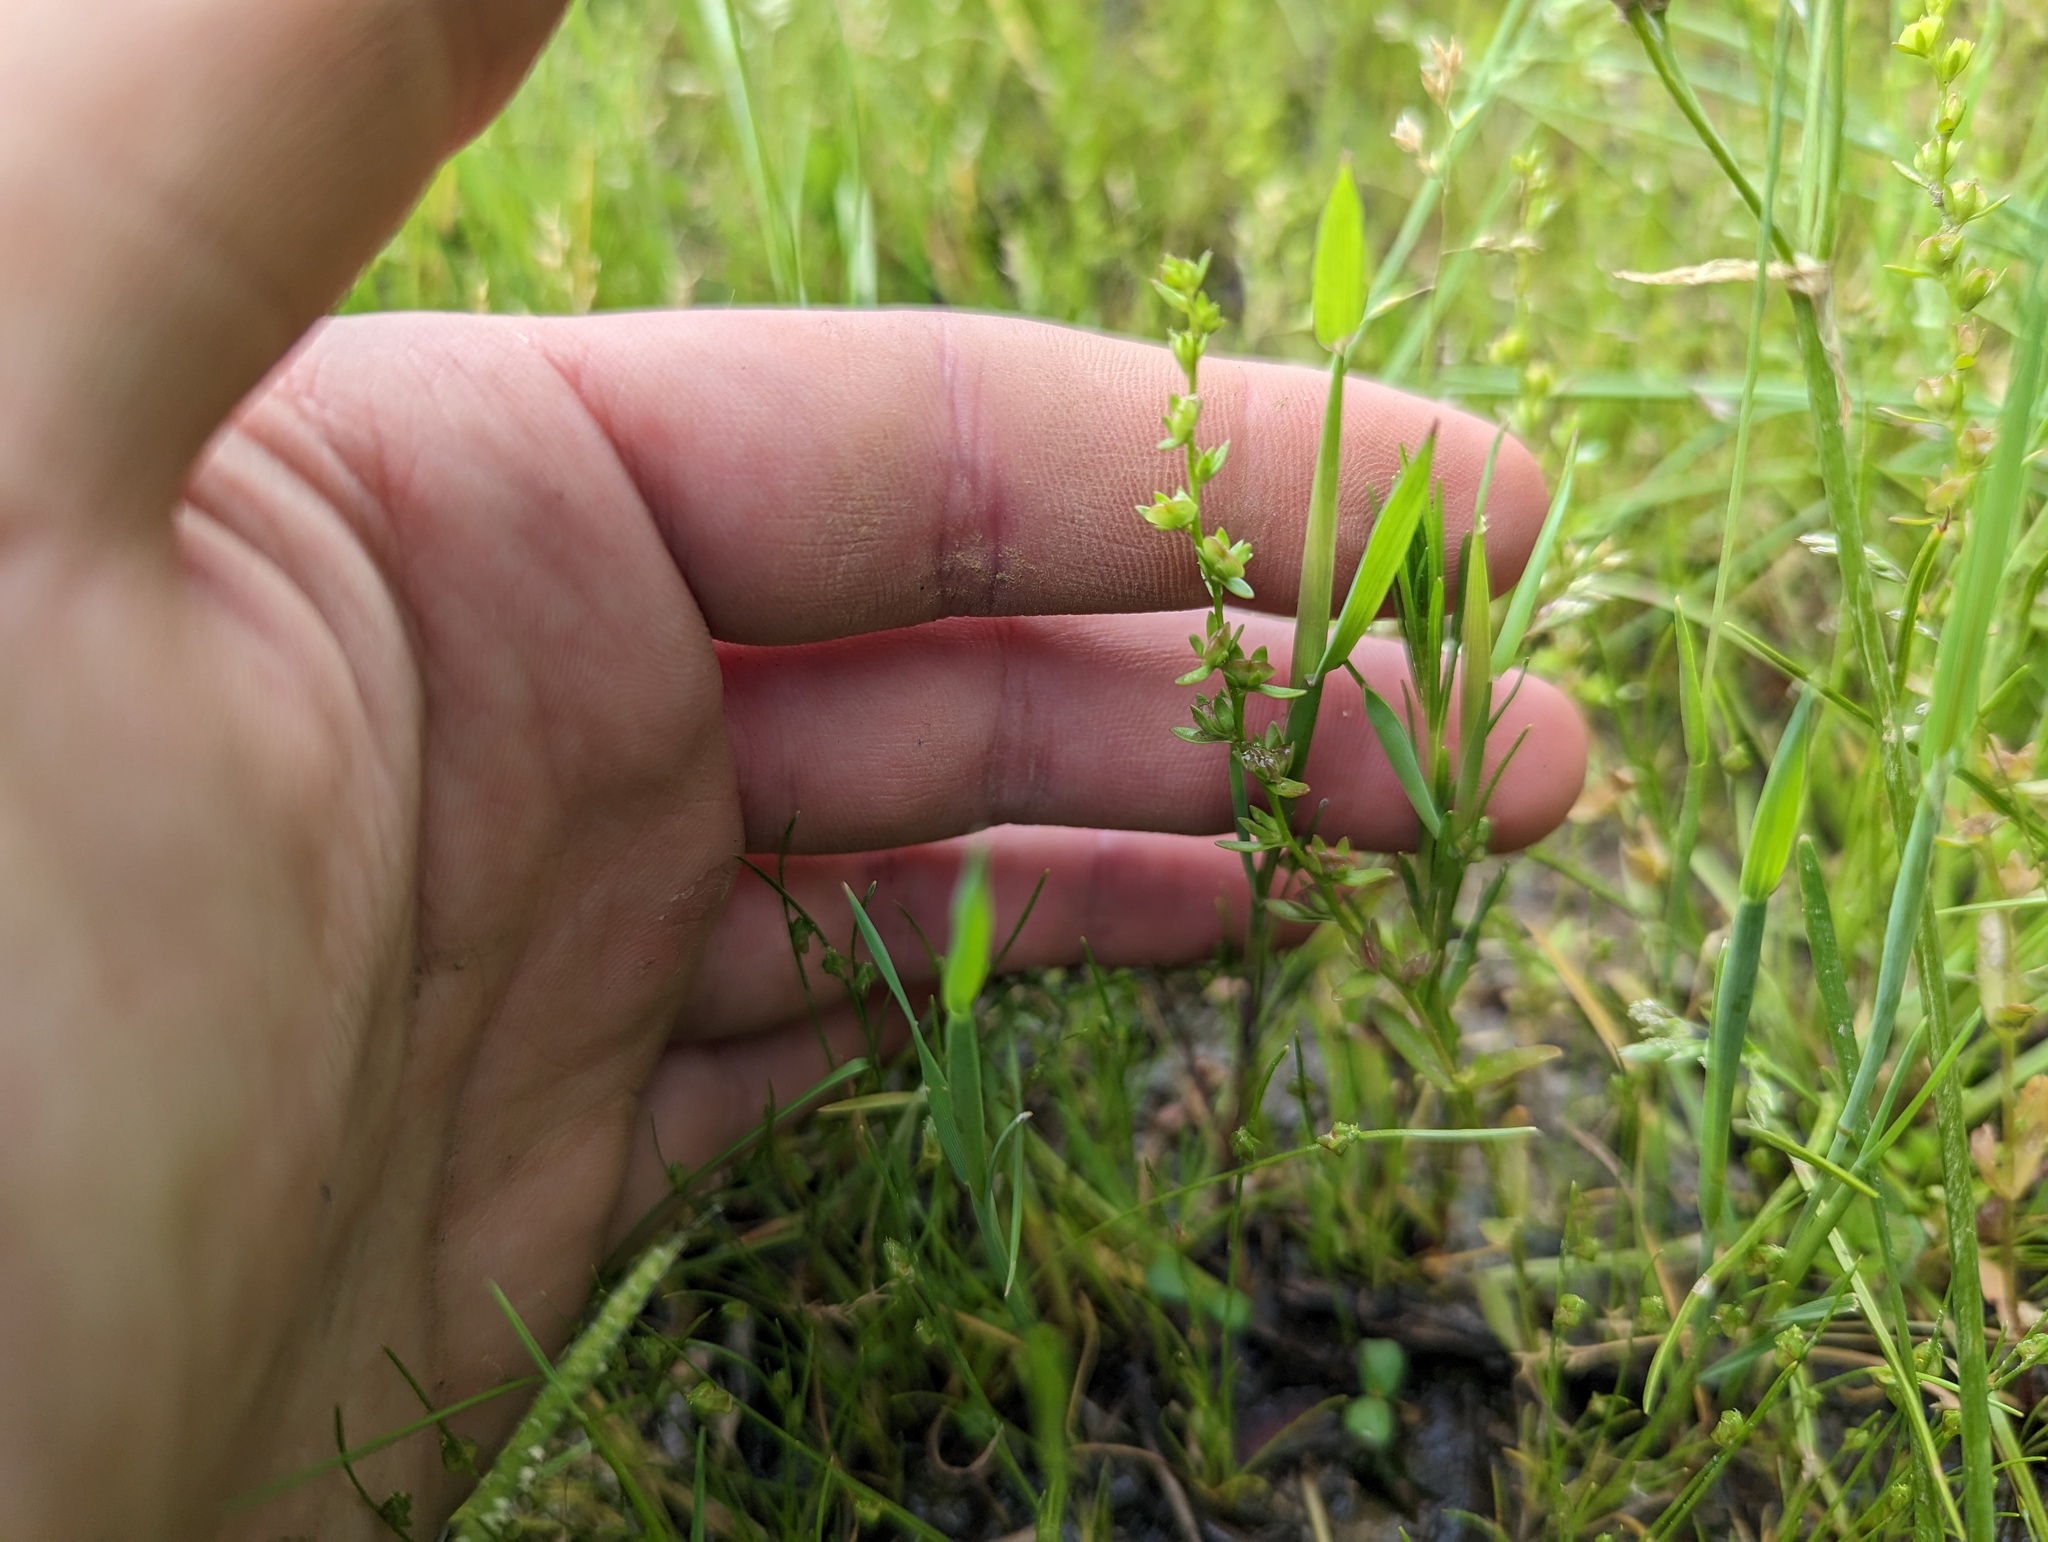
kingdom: Plantae
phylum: Tracheophyta
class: Magnoliopsida
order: Lamiales
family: Plantaginaceae
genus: Veronica
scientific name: Veronica peregrina
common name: Neckweed
